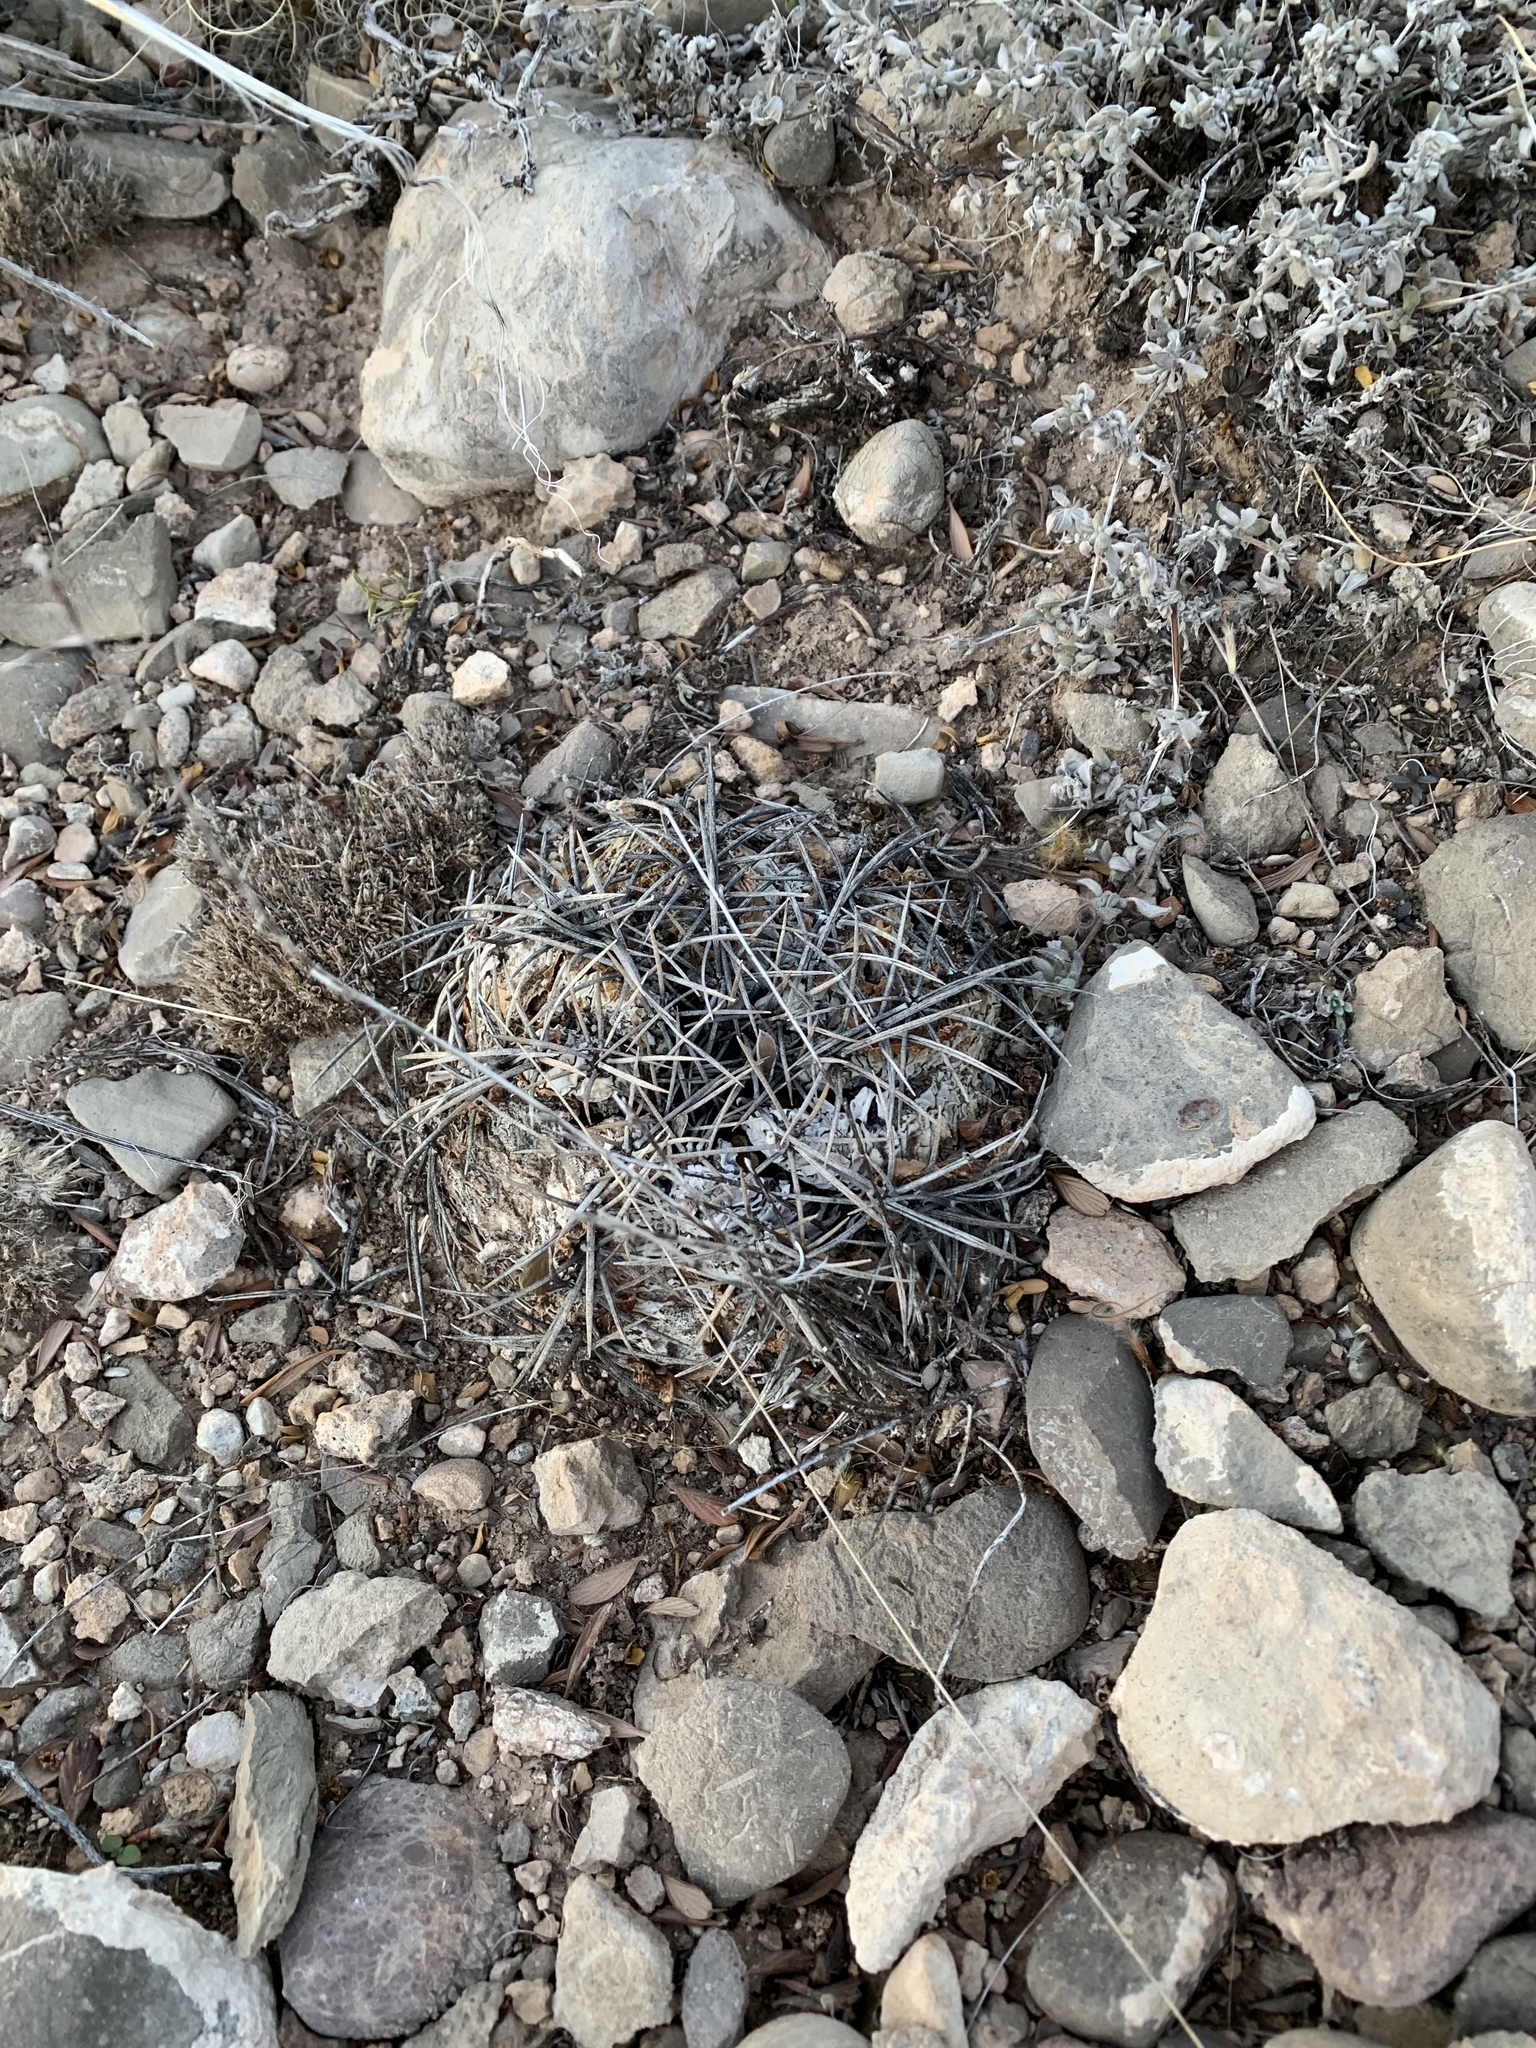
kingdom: Plantae
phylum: Tracheophyta
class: Magnoliopsida
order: Caryophyllales
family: Cactaceae
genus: Echinocactus
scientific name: Echinocactus horizonthalonius
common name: Devilshead
